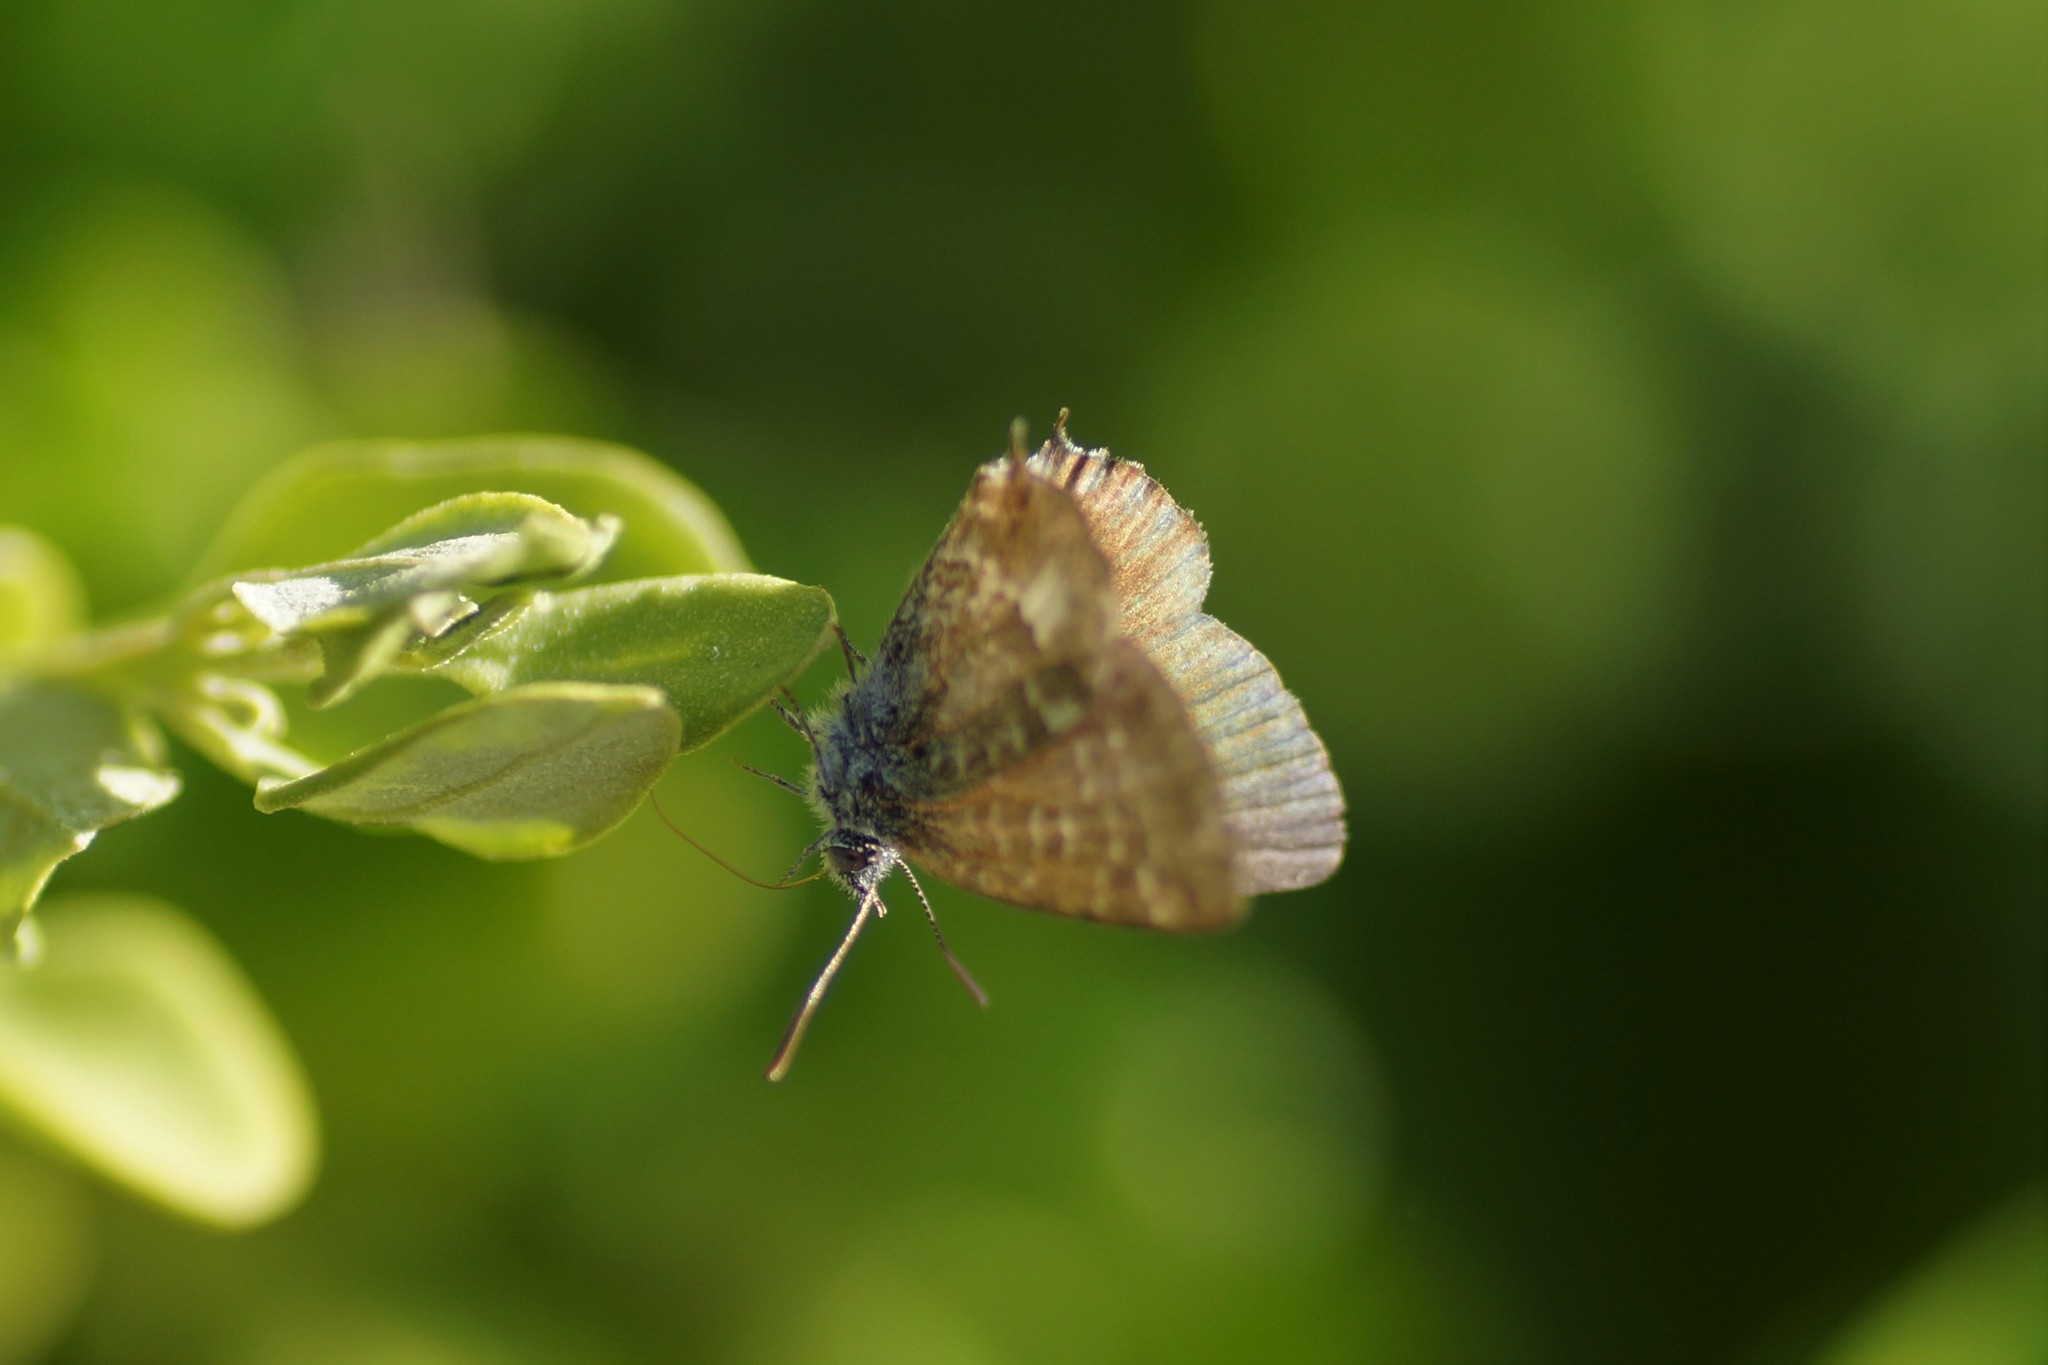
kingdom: Animalia
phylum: Arthropoda
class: Insecta
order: Lepidoptera
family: Lycaenidae
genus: Theclinesthes
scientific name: Theclinesthes serpentata
